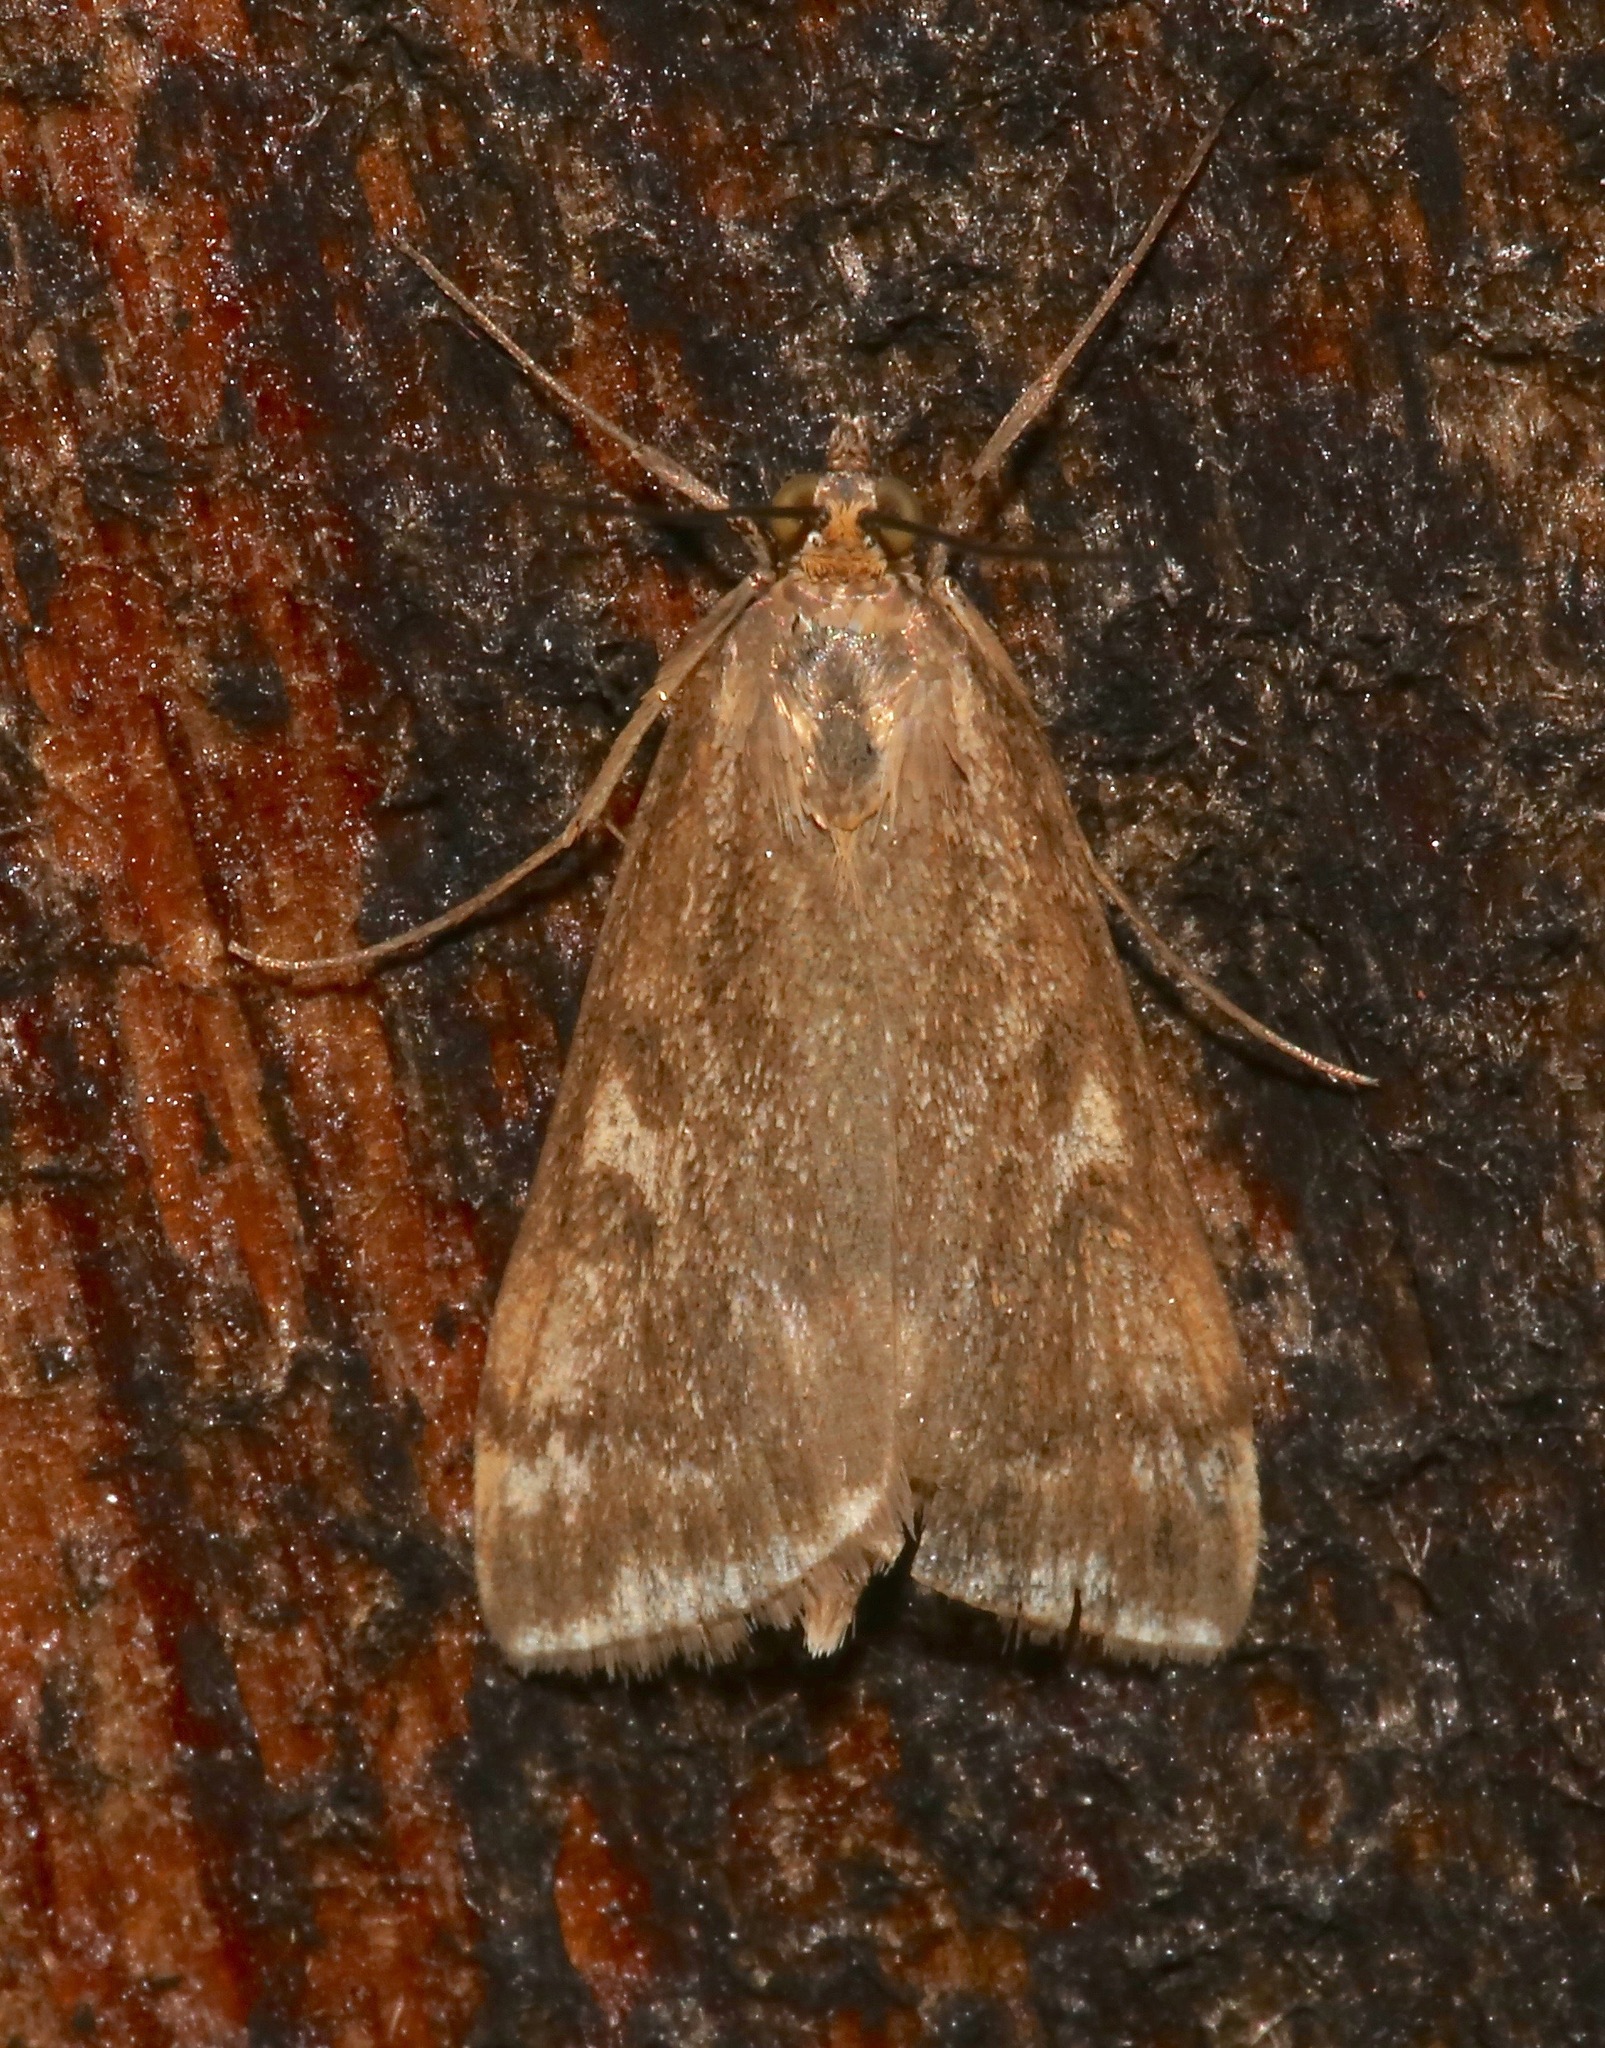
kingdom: Animalia
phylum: Arthropoda
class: Insecta
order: Lepidoptera
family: Crambidae
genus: Loxostege
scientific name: Loxostege
